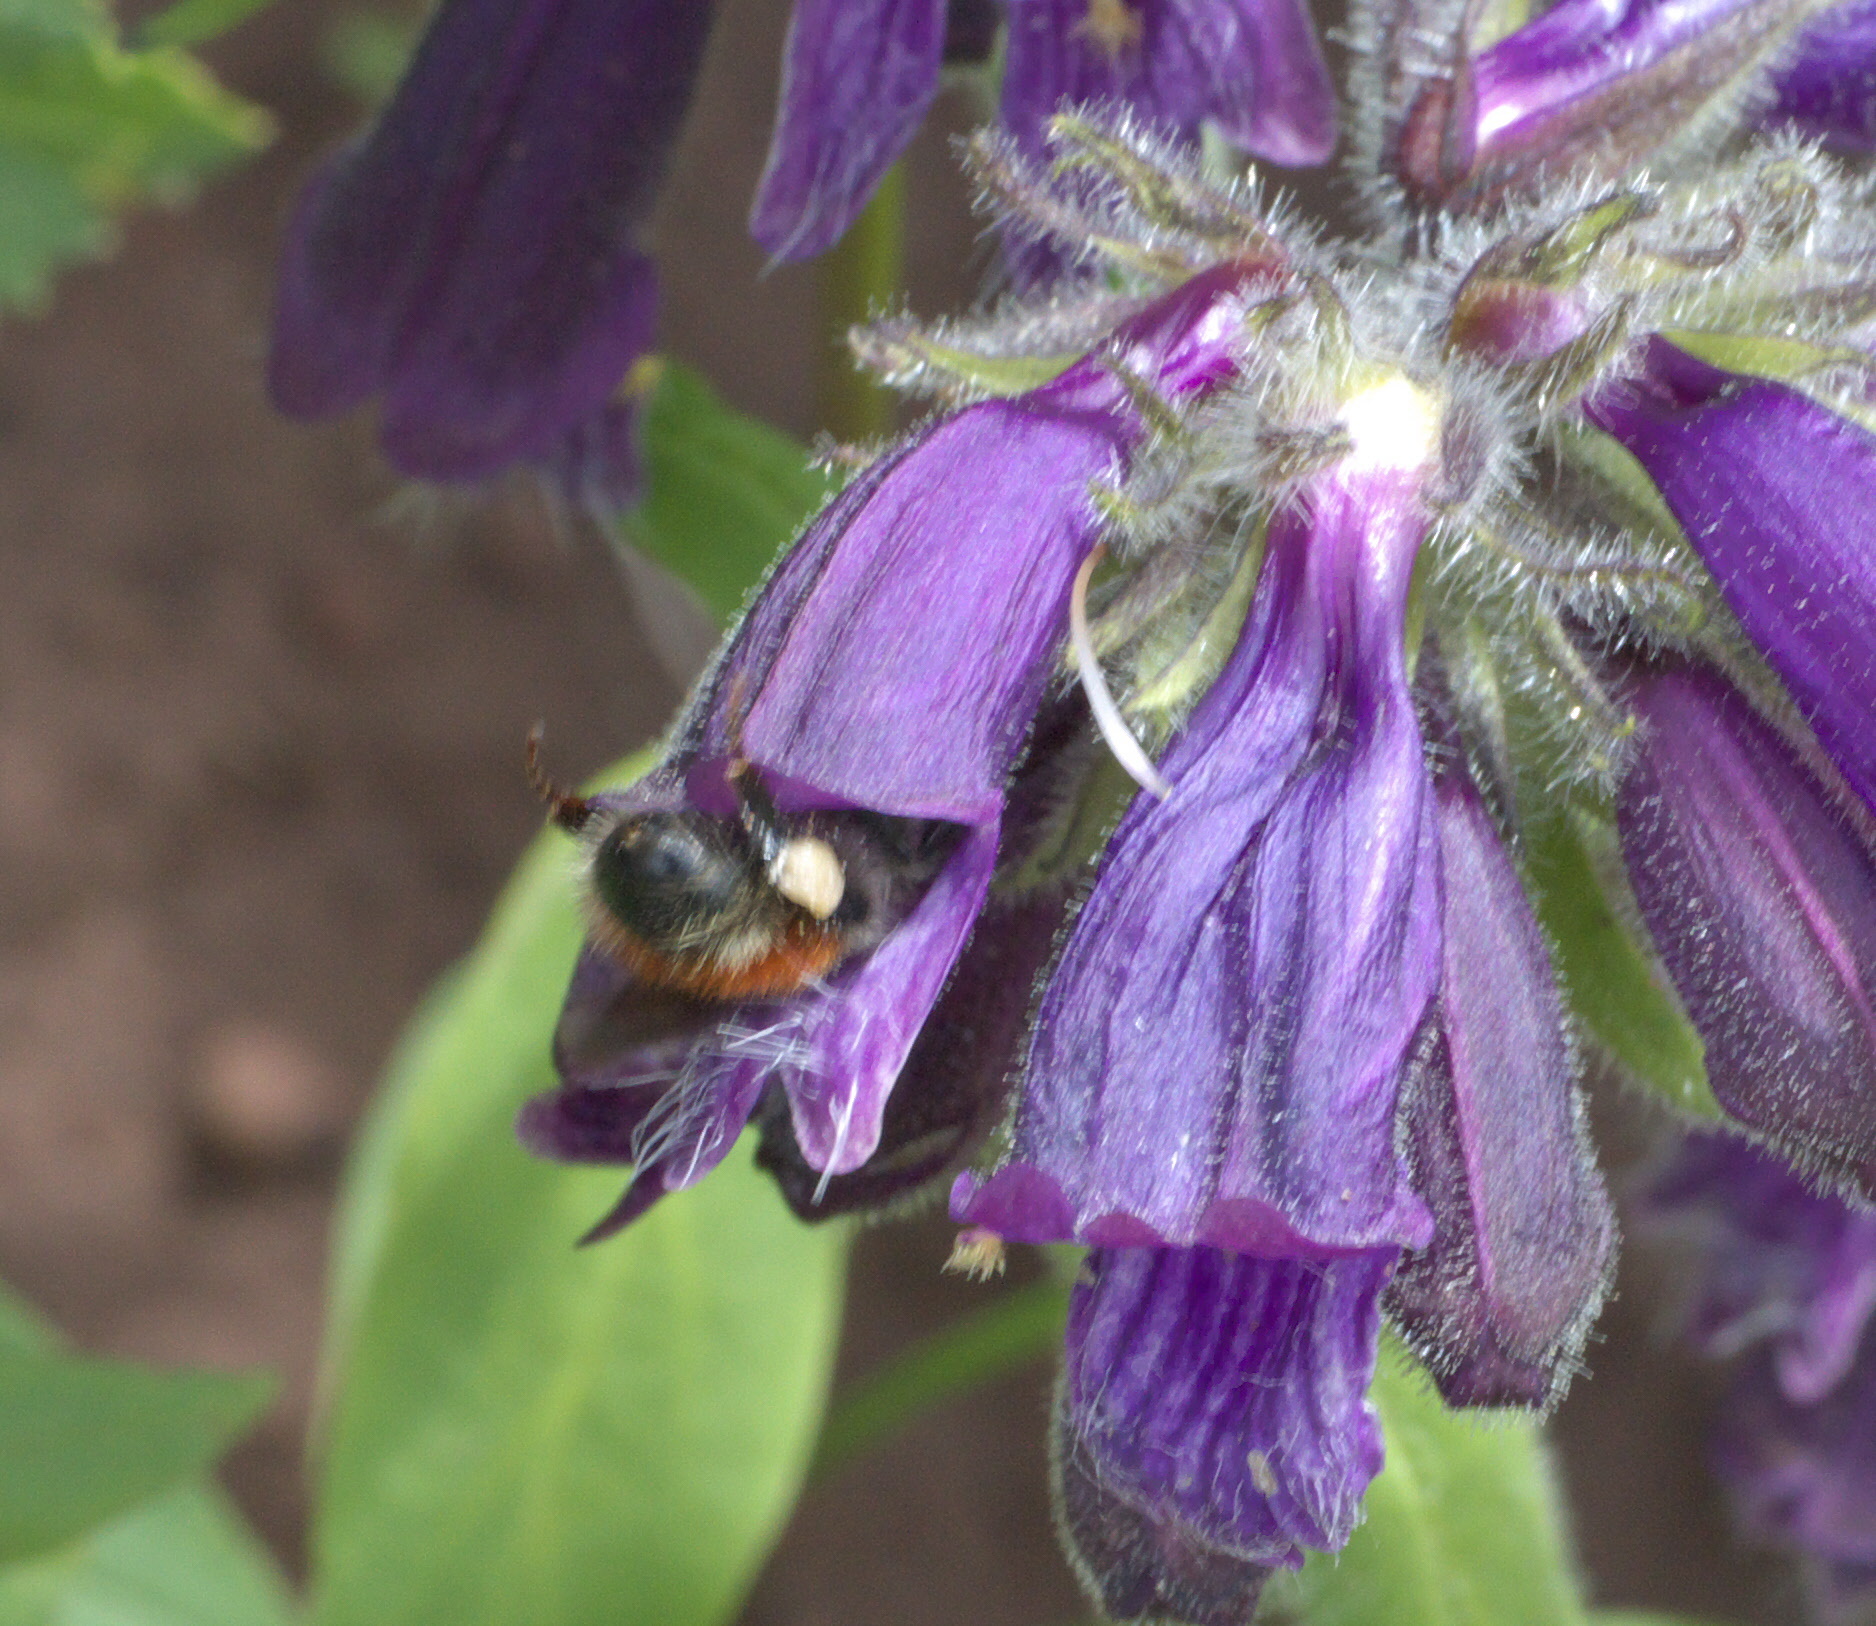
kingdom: Animalia
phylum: Arthropoda
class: Insecta
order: Hymenoptera
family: Apidae
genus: Bombus
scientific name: Bombus sylvicola
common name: Forest bumble bee
